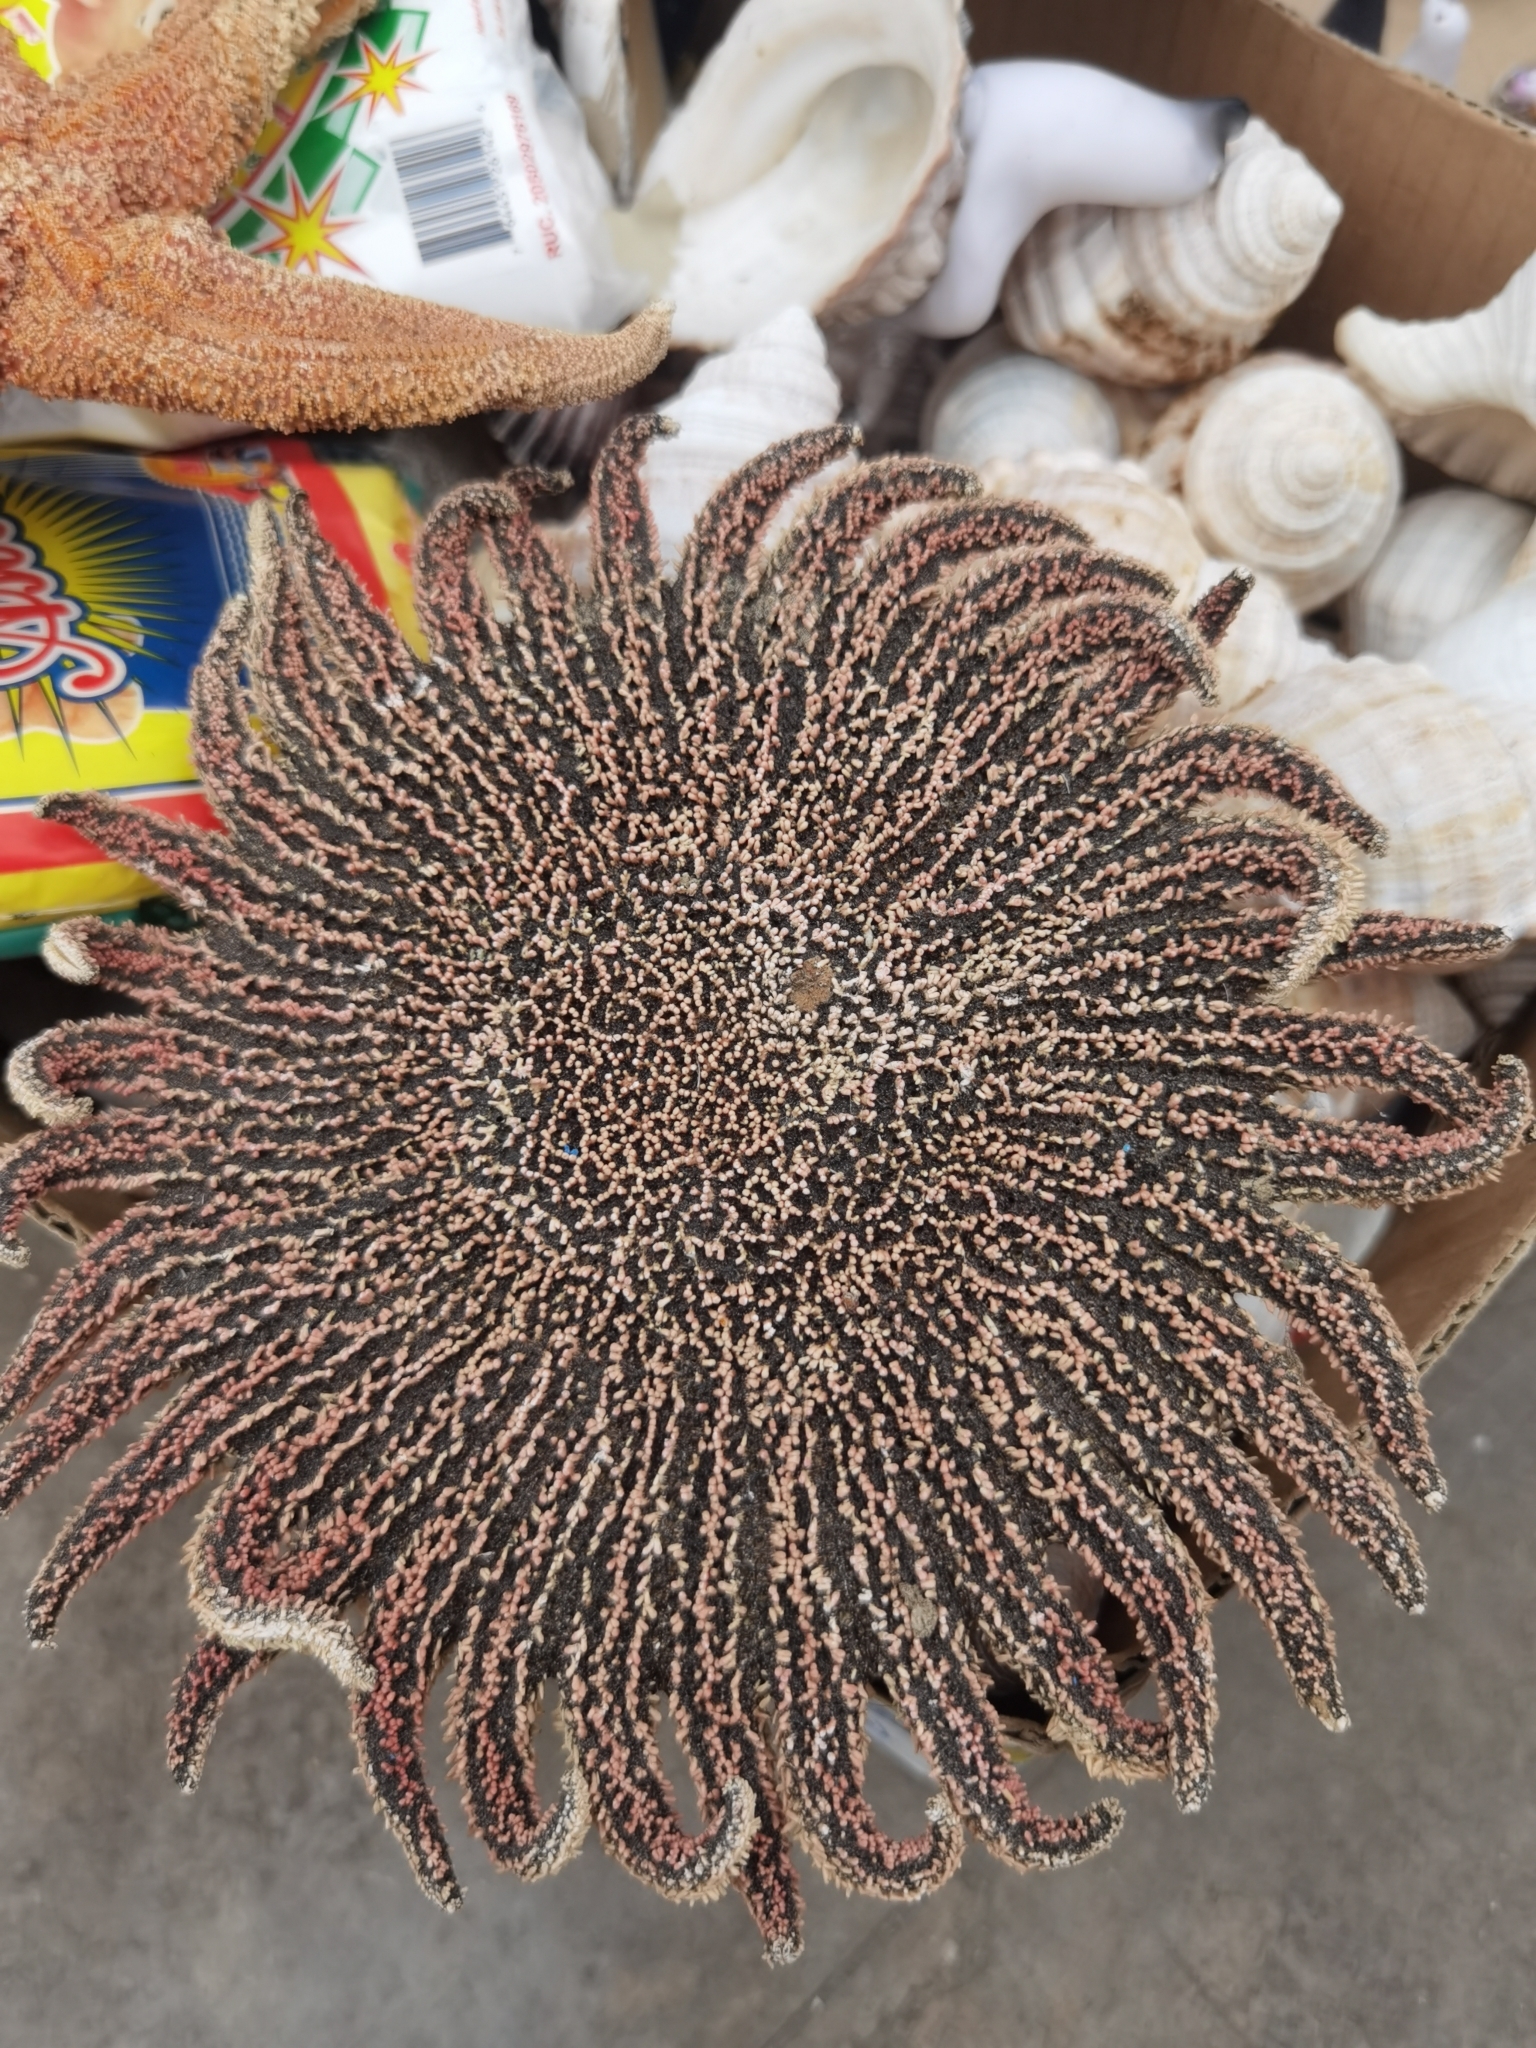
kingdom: Animalia
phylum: Echinodermata
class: Asteroidea
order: Forcipulatida
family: Heliasteridae
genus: Heliaster
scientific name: Heliaster helianthus
